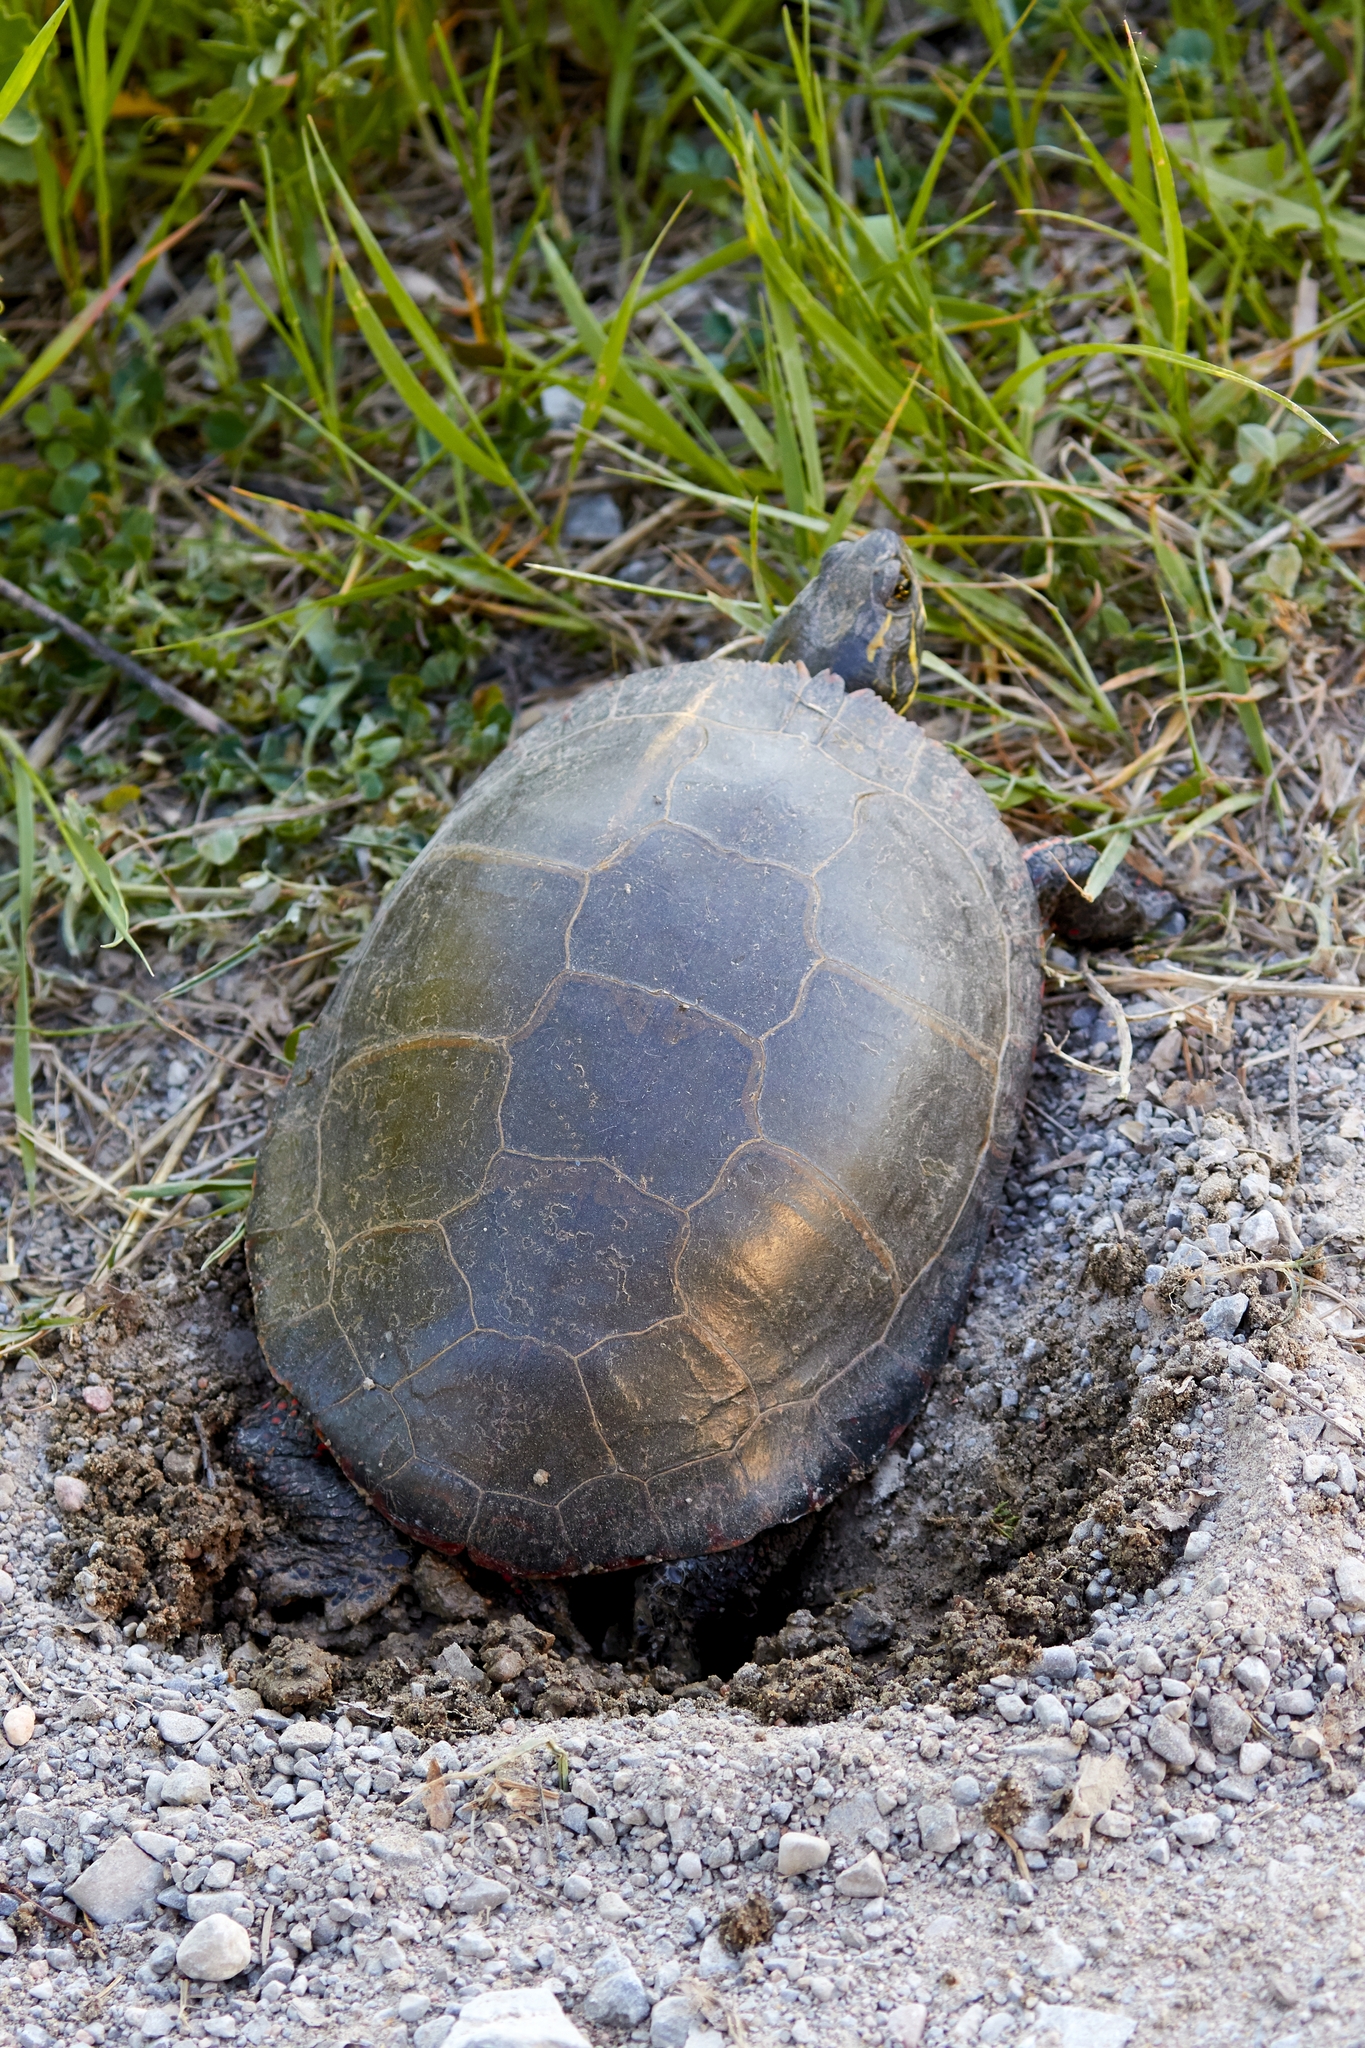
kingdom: Animalia
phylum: Chordata
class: Testudines
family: Emydidae
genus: Chrysemys
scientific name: Chrysemys picta
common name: Painted turtle
